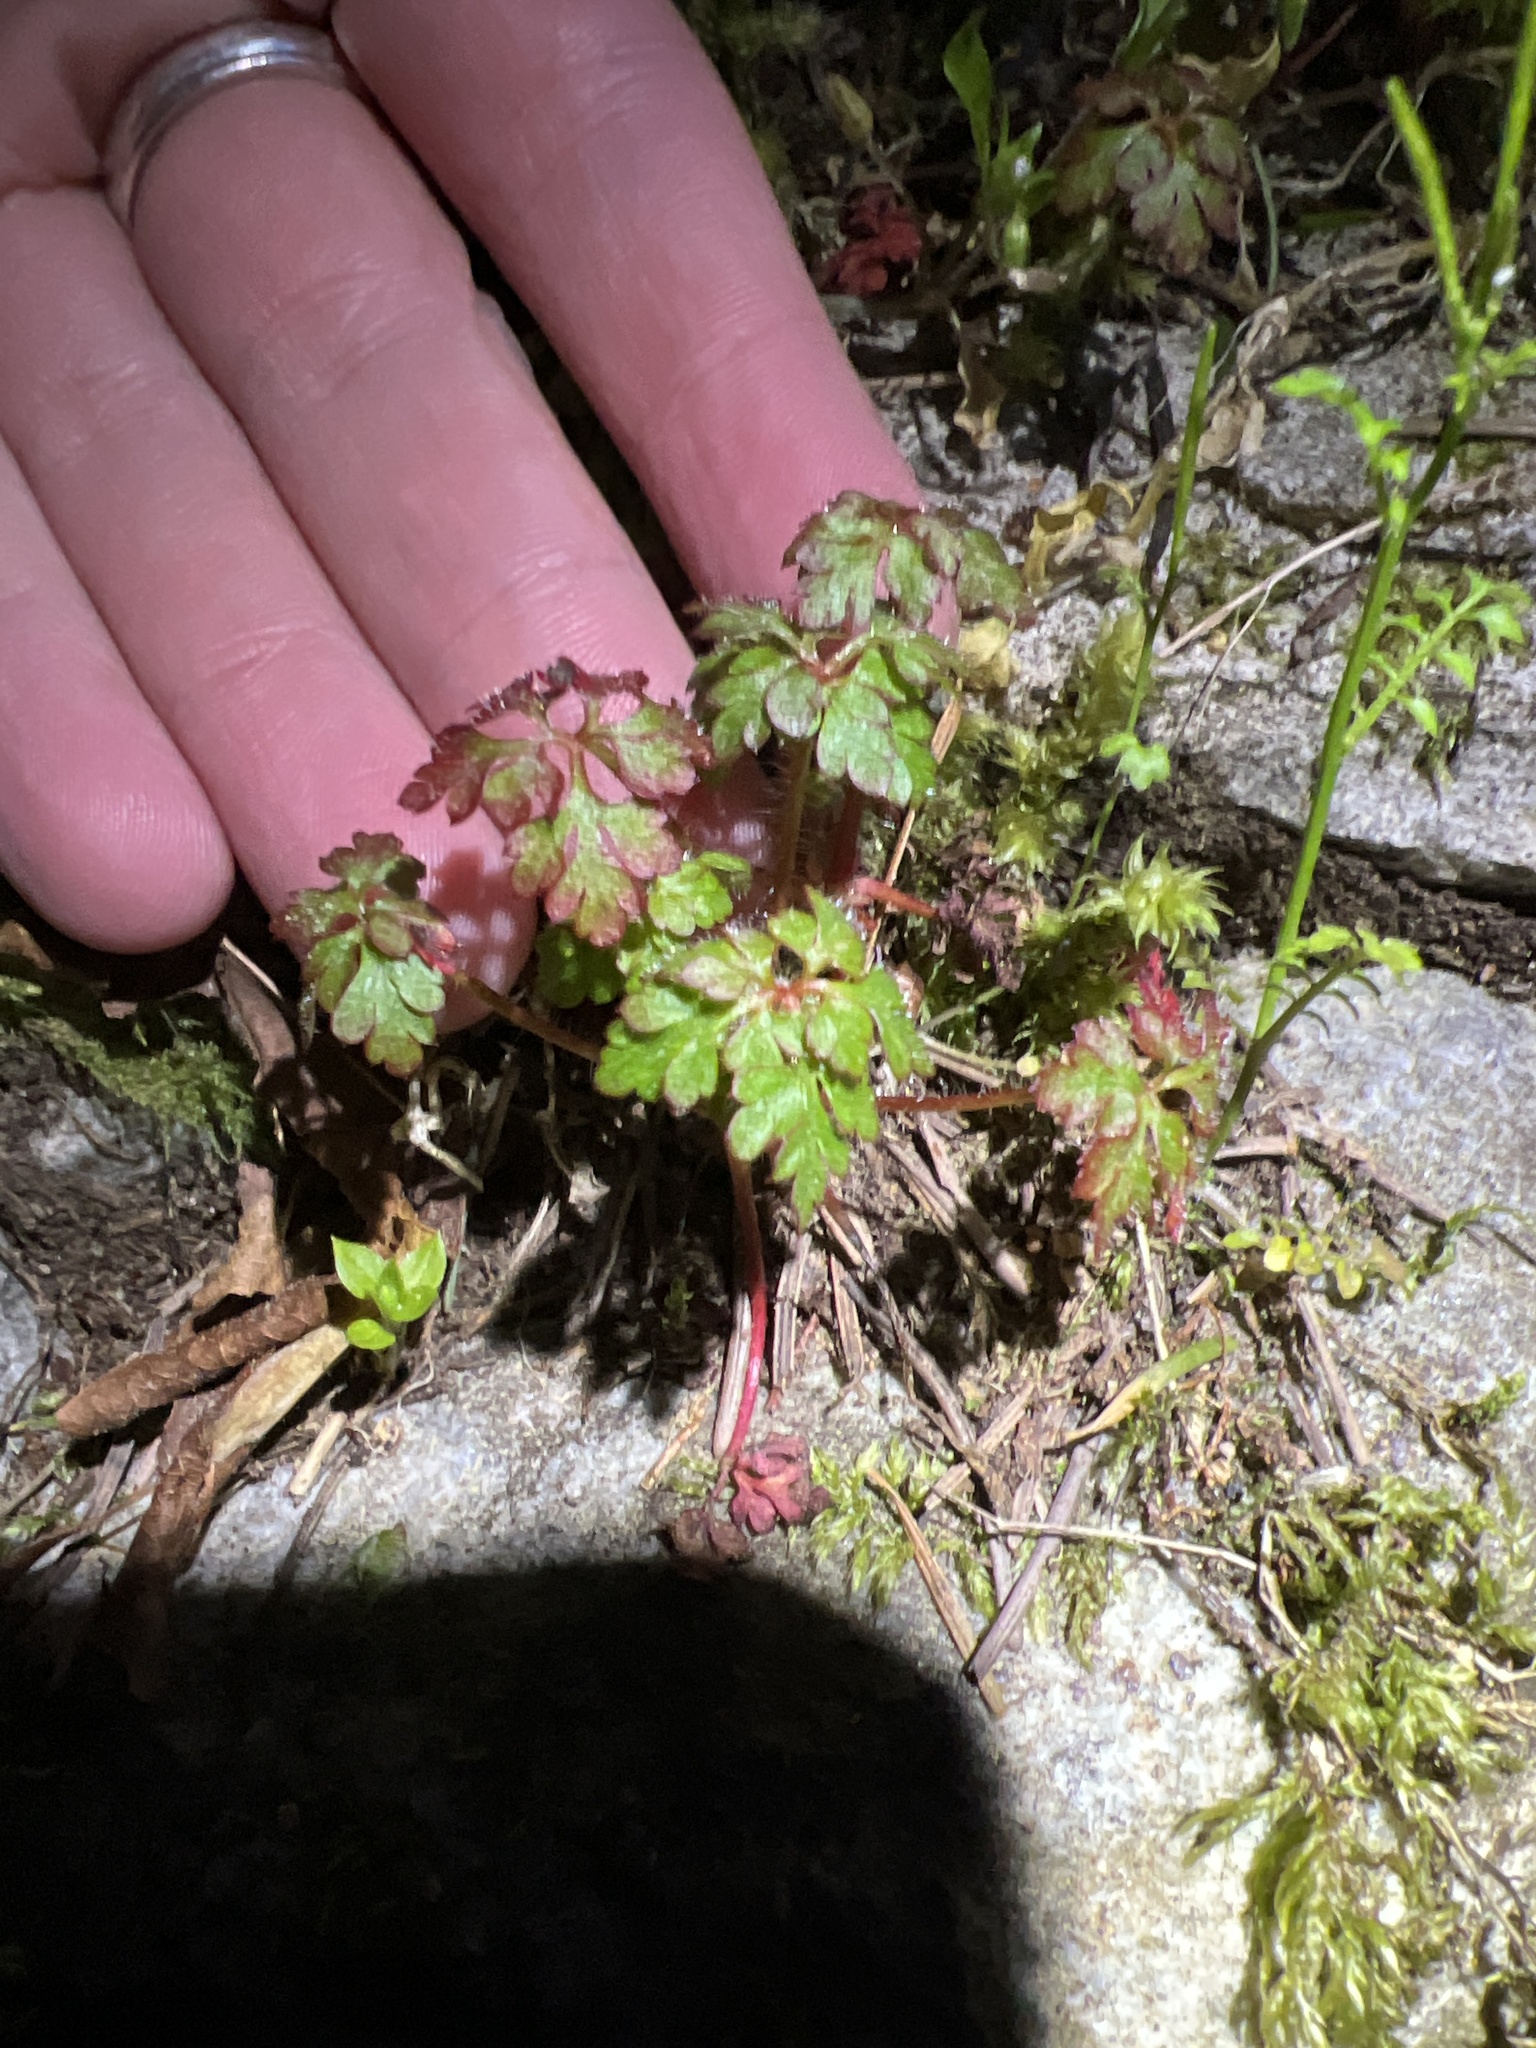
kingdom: Plantae
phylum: Tracheophyta
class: Magnoliopsida
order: Geraniales
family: Geraniaceae
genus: Geranium
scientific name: Geranium robertianum
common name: Herb-robert
